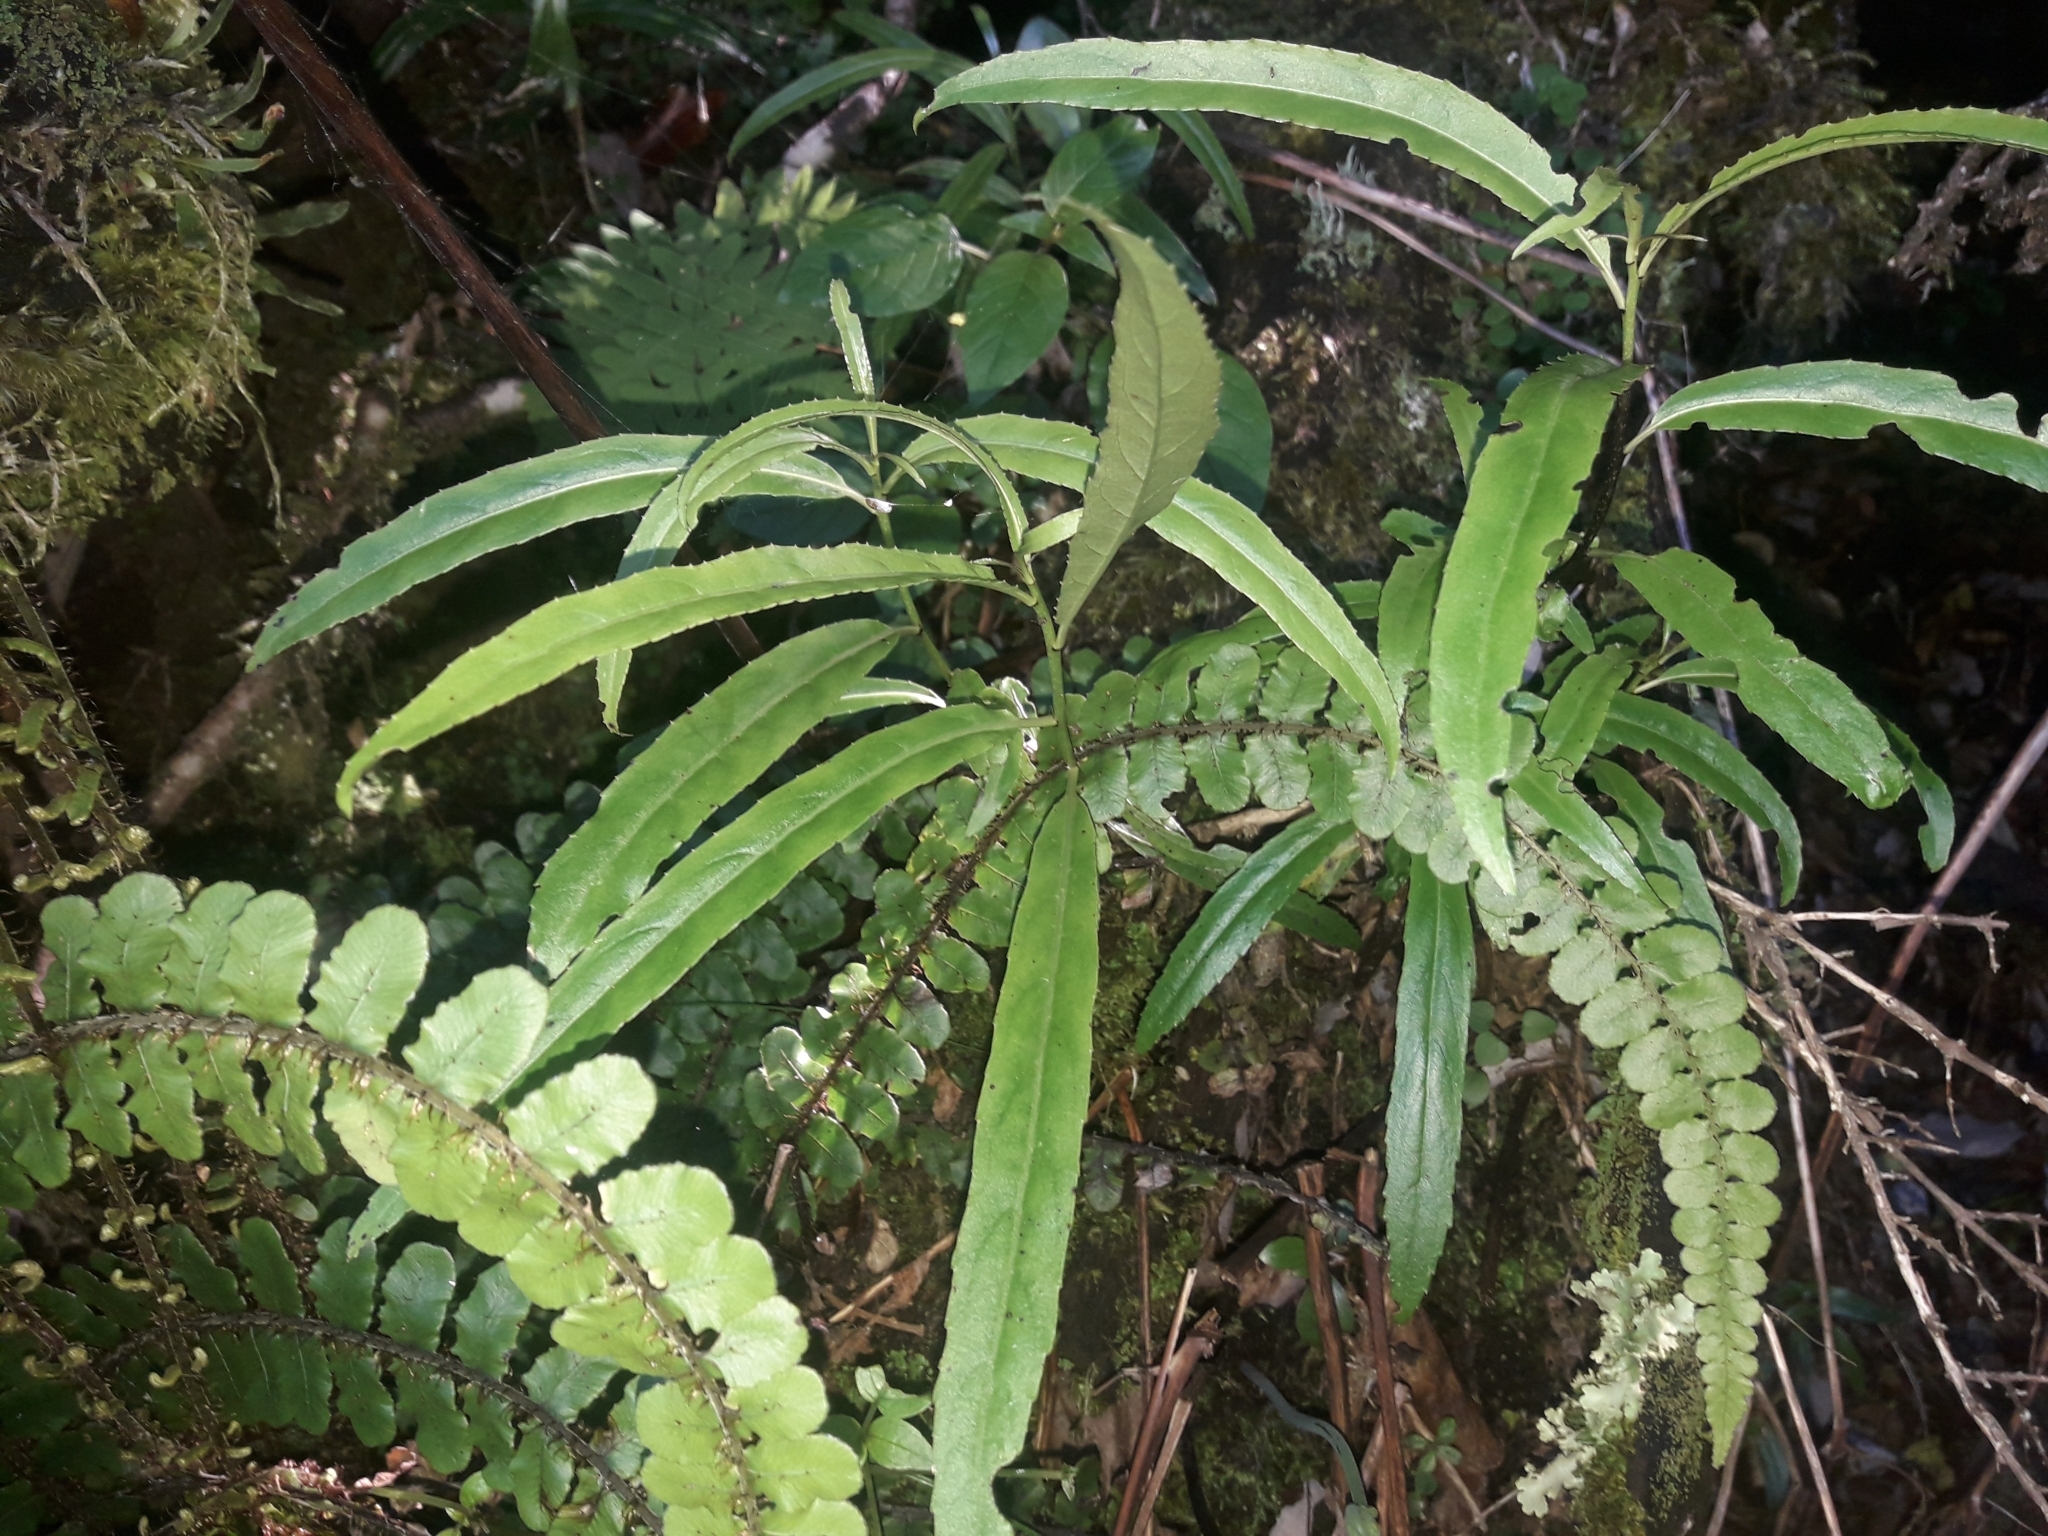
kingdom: Plantae
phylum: Tracheophyta
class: Magnoliopsida
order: Malpighiales
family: Violaceae
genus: Melicytus
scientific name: Melicytus lanceolatus
